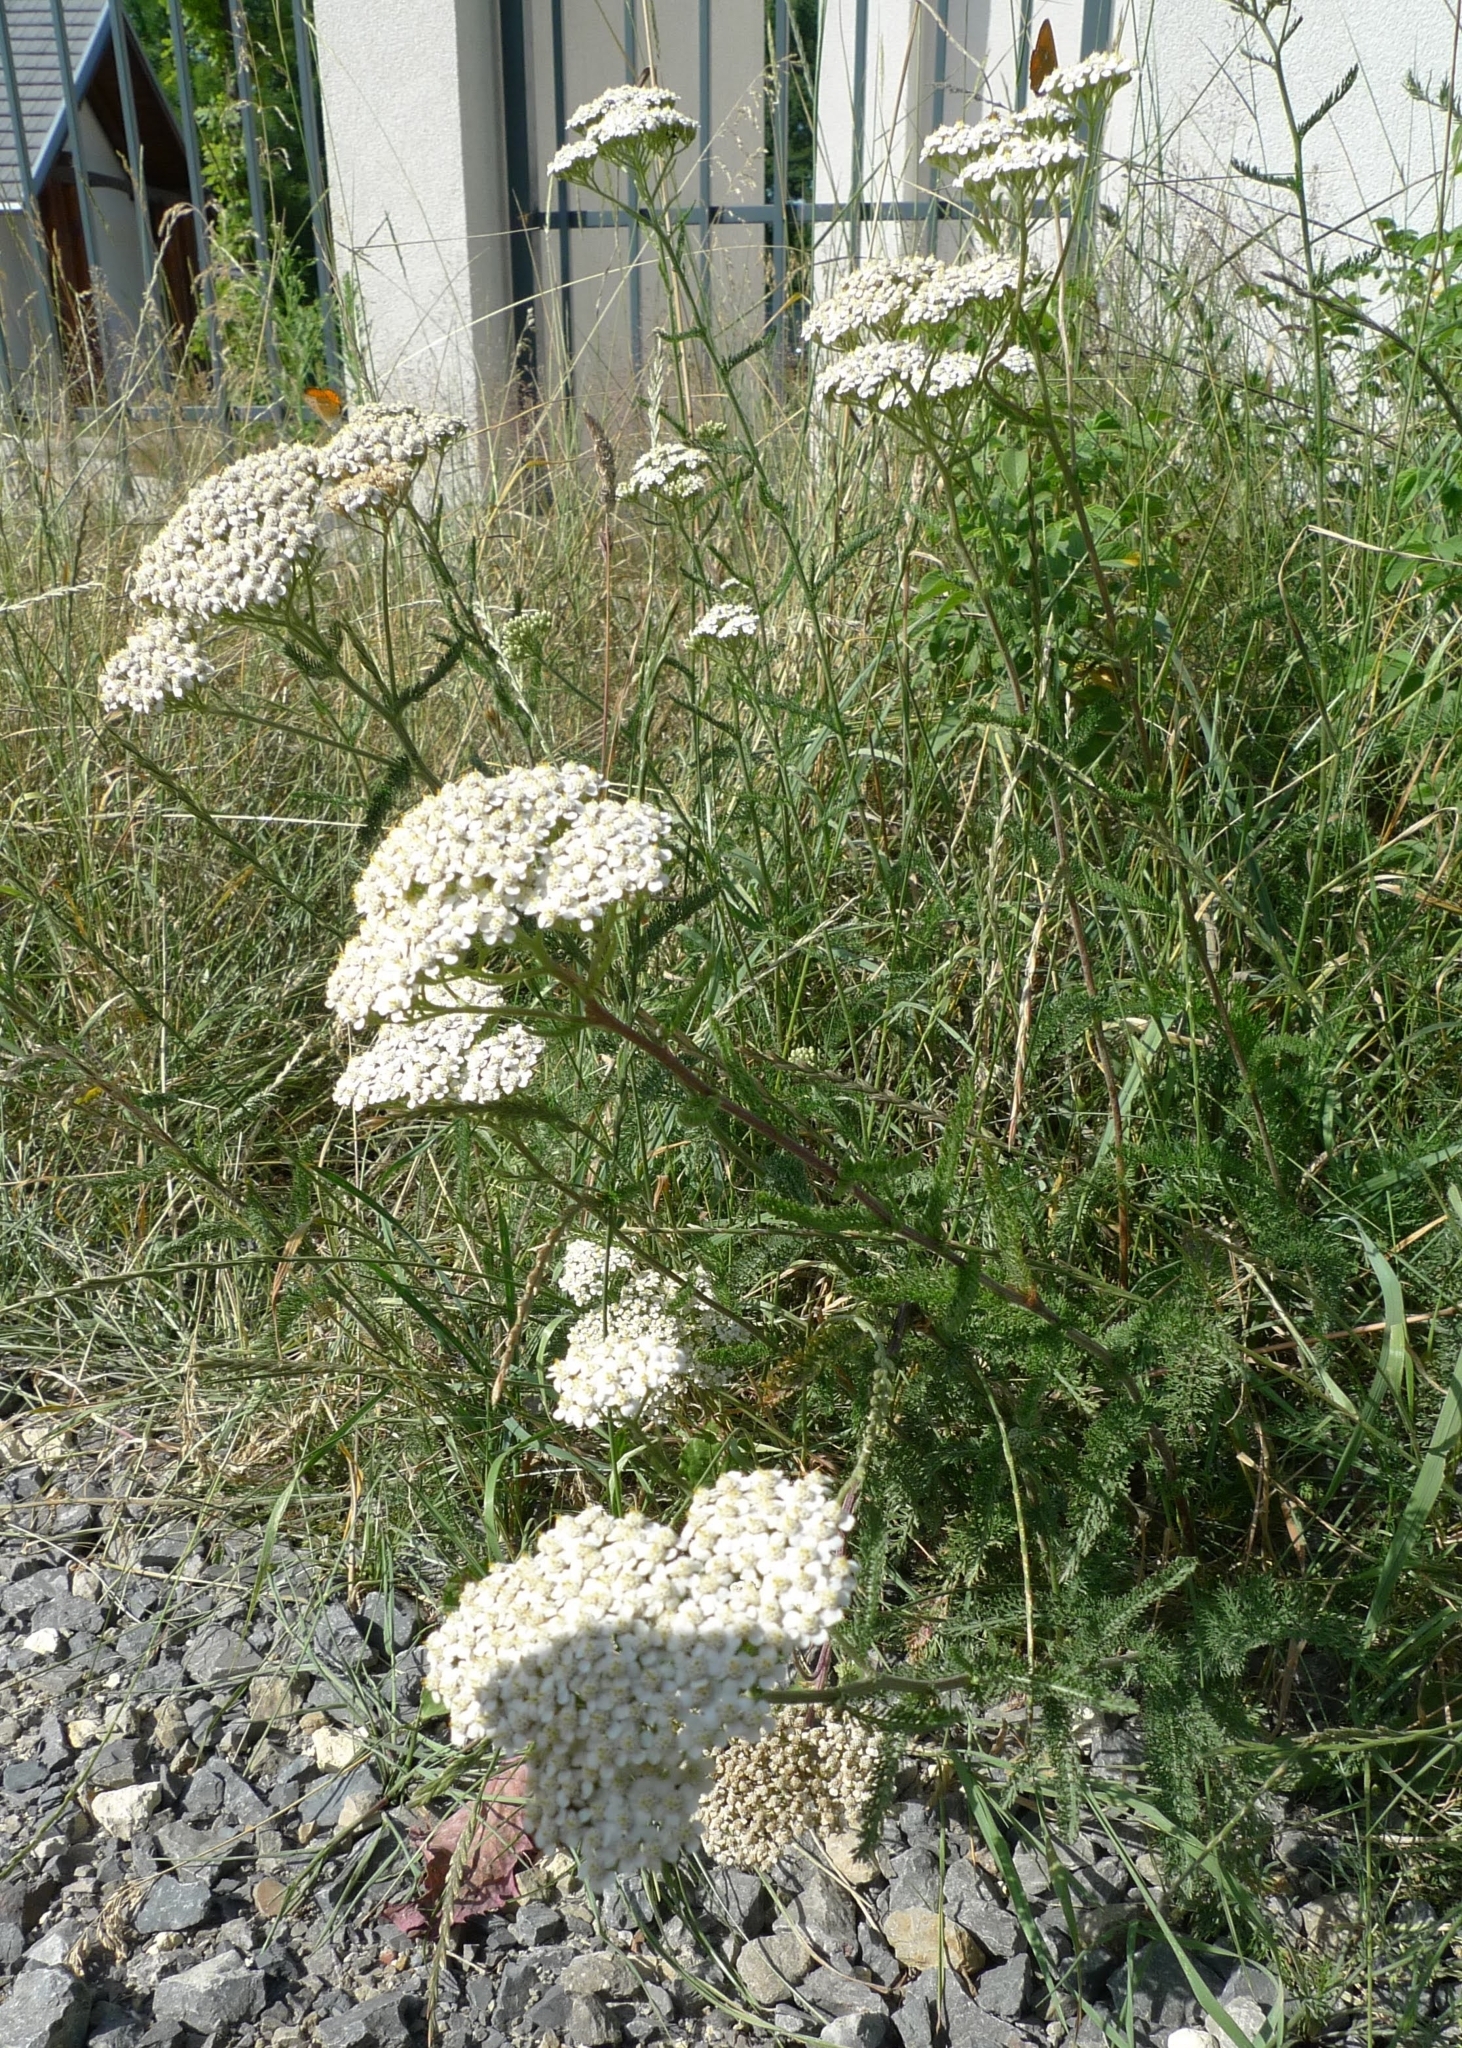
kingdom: Plantae
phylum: Tracheophyta
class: Magnoliopsida
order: Asterales
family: Asteraceae
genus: Achillea
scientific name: Achillea millefolium
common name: Yarrow
